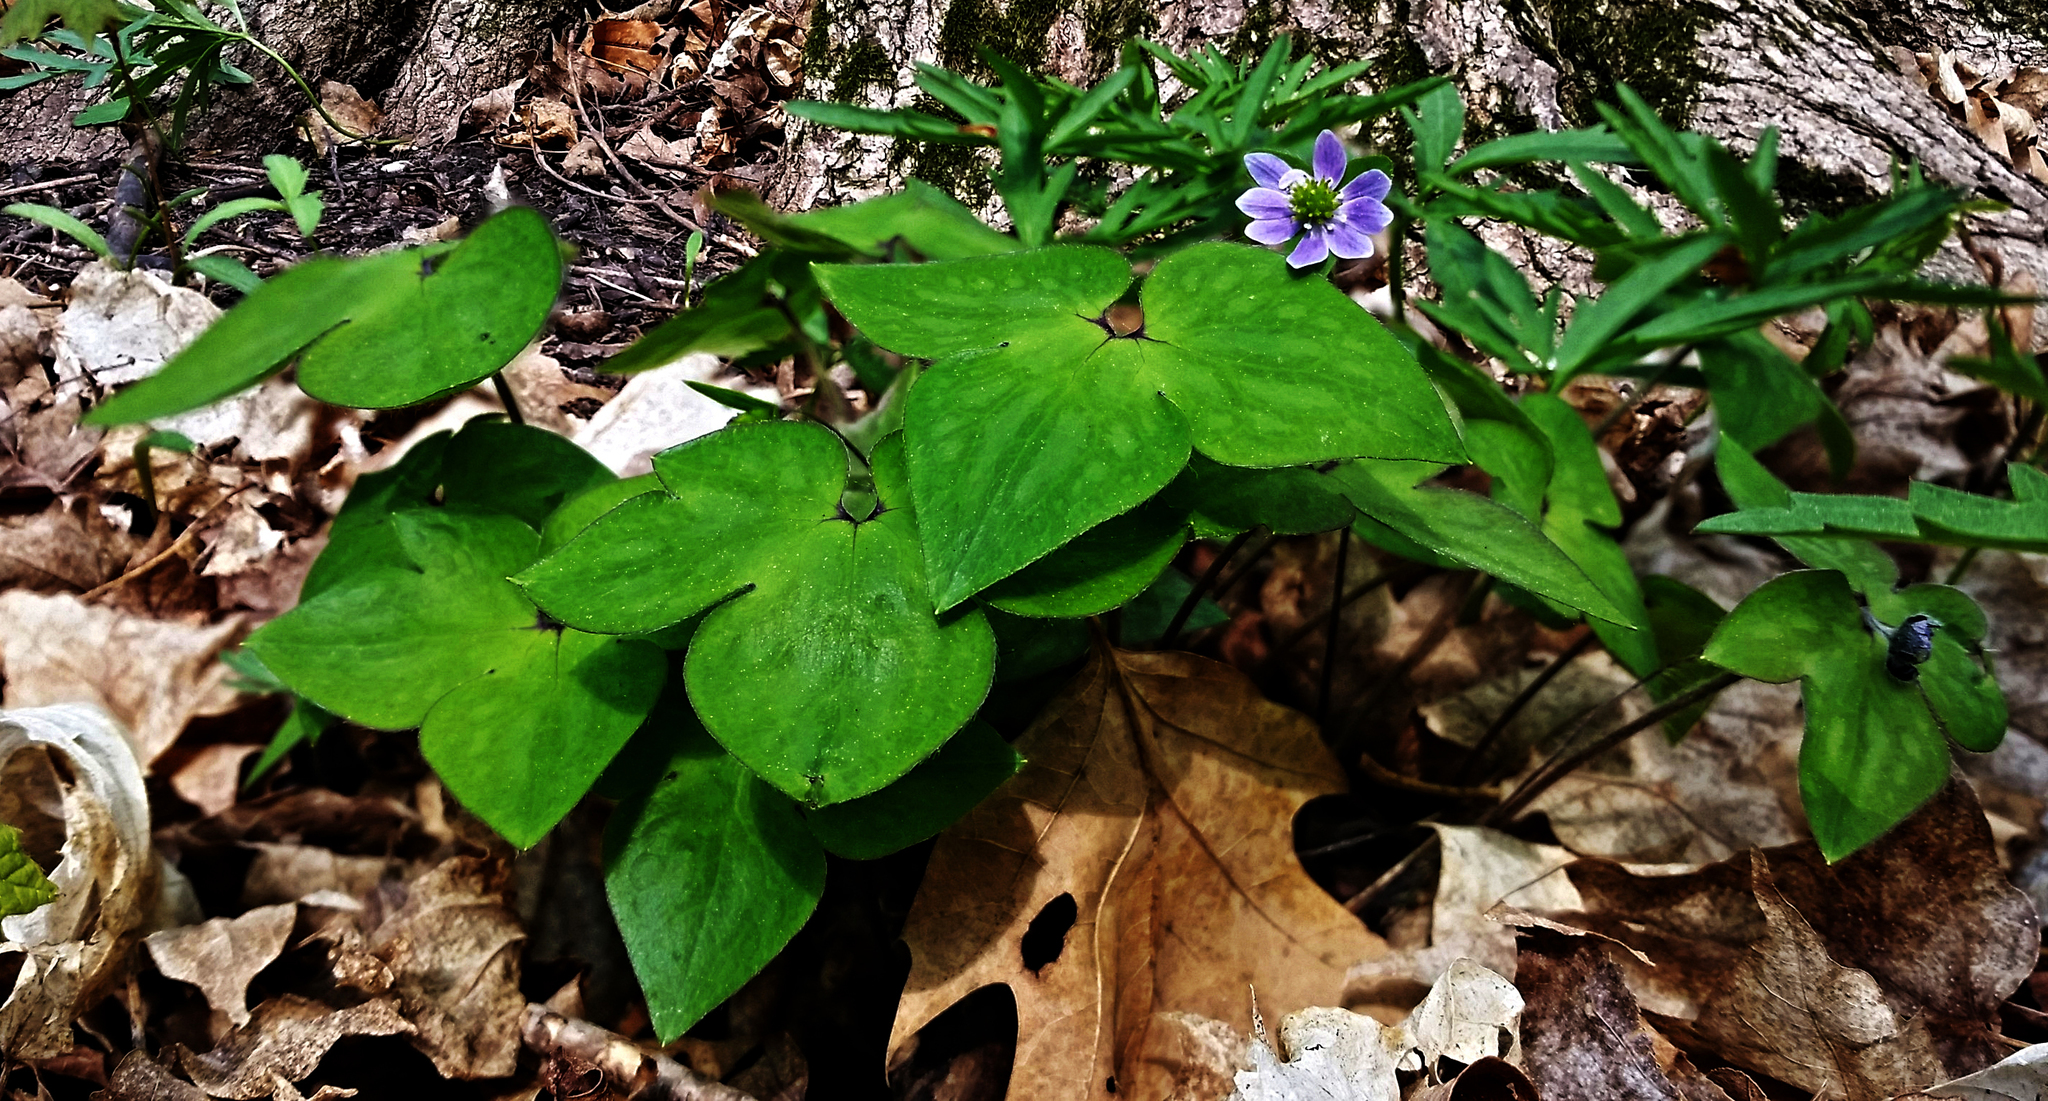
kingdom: Plantae
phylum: Tracheophyta
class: Magnoliopsida
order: Ranunculales
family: Ranunculaceae
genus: Hepatica
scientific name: Hepatica acutiloba
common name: Sharp-lobed hepatica
